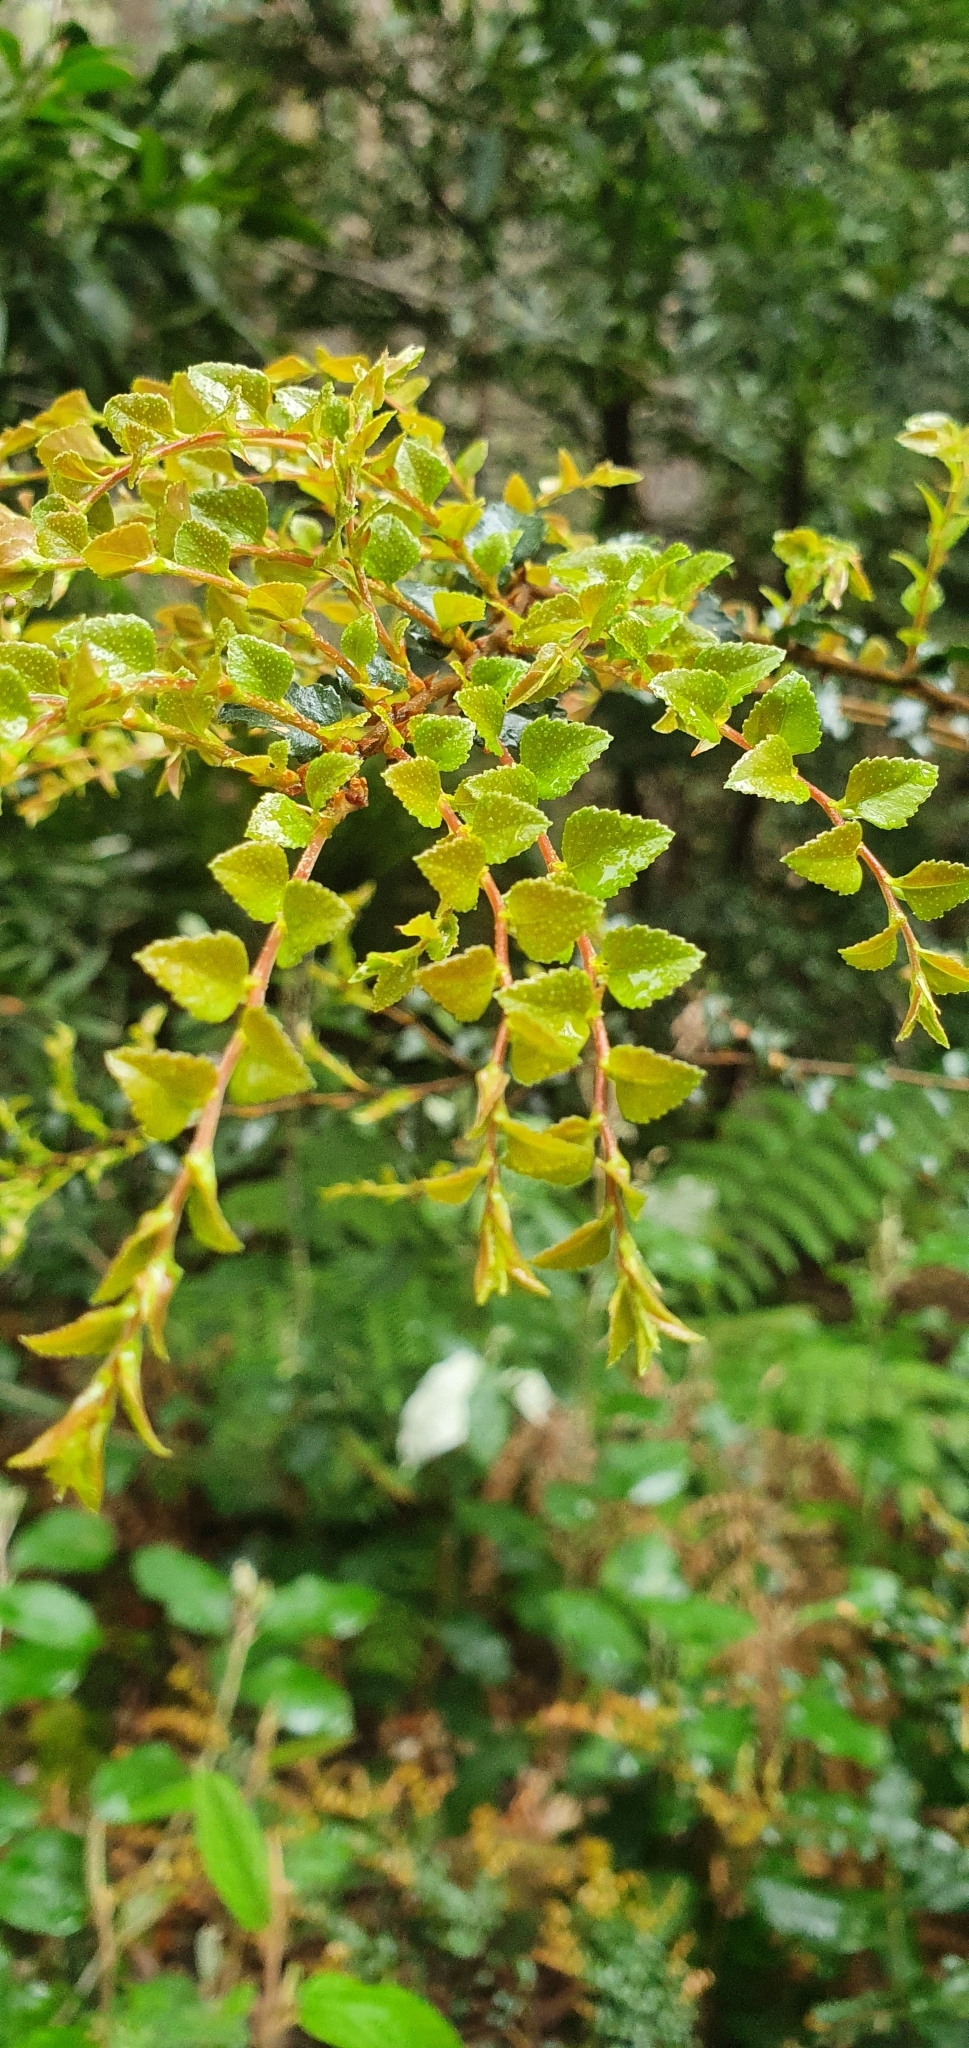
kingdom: Plantae
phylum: Tracheophyta
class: Magnoliopsida
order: Fagales
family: Nothofagaceae
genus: Nothofagus
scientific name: Nothofagus cunninghamii
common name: Myrtle beech
